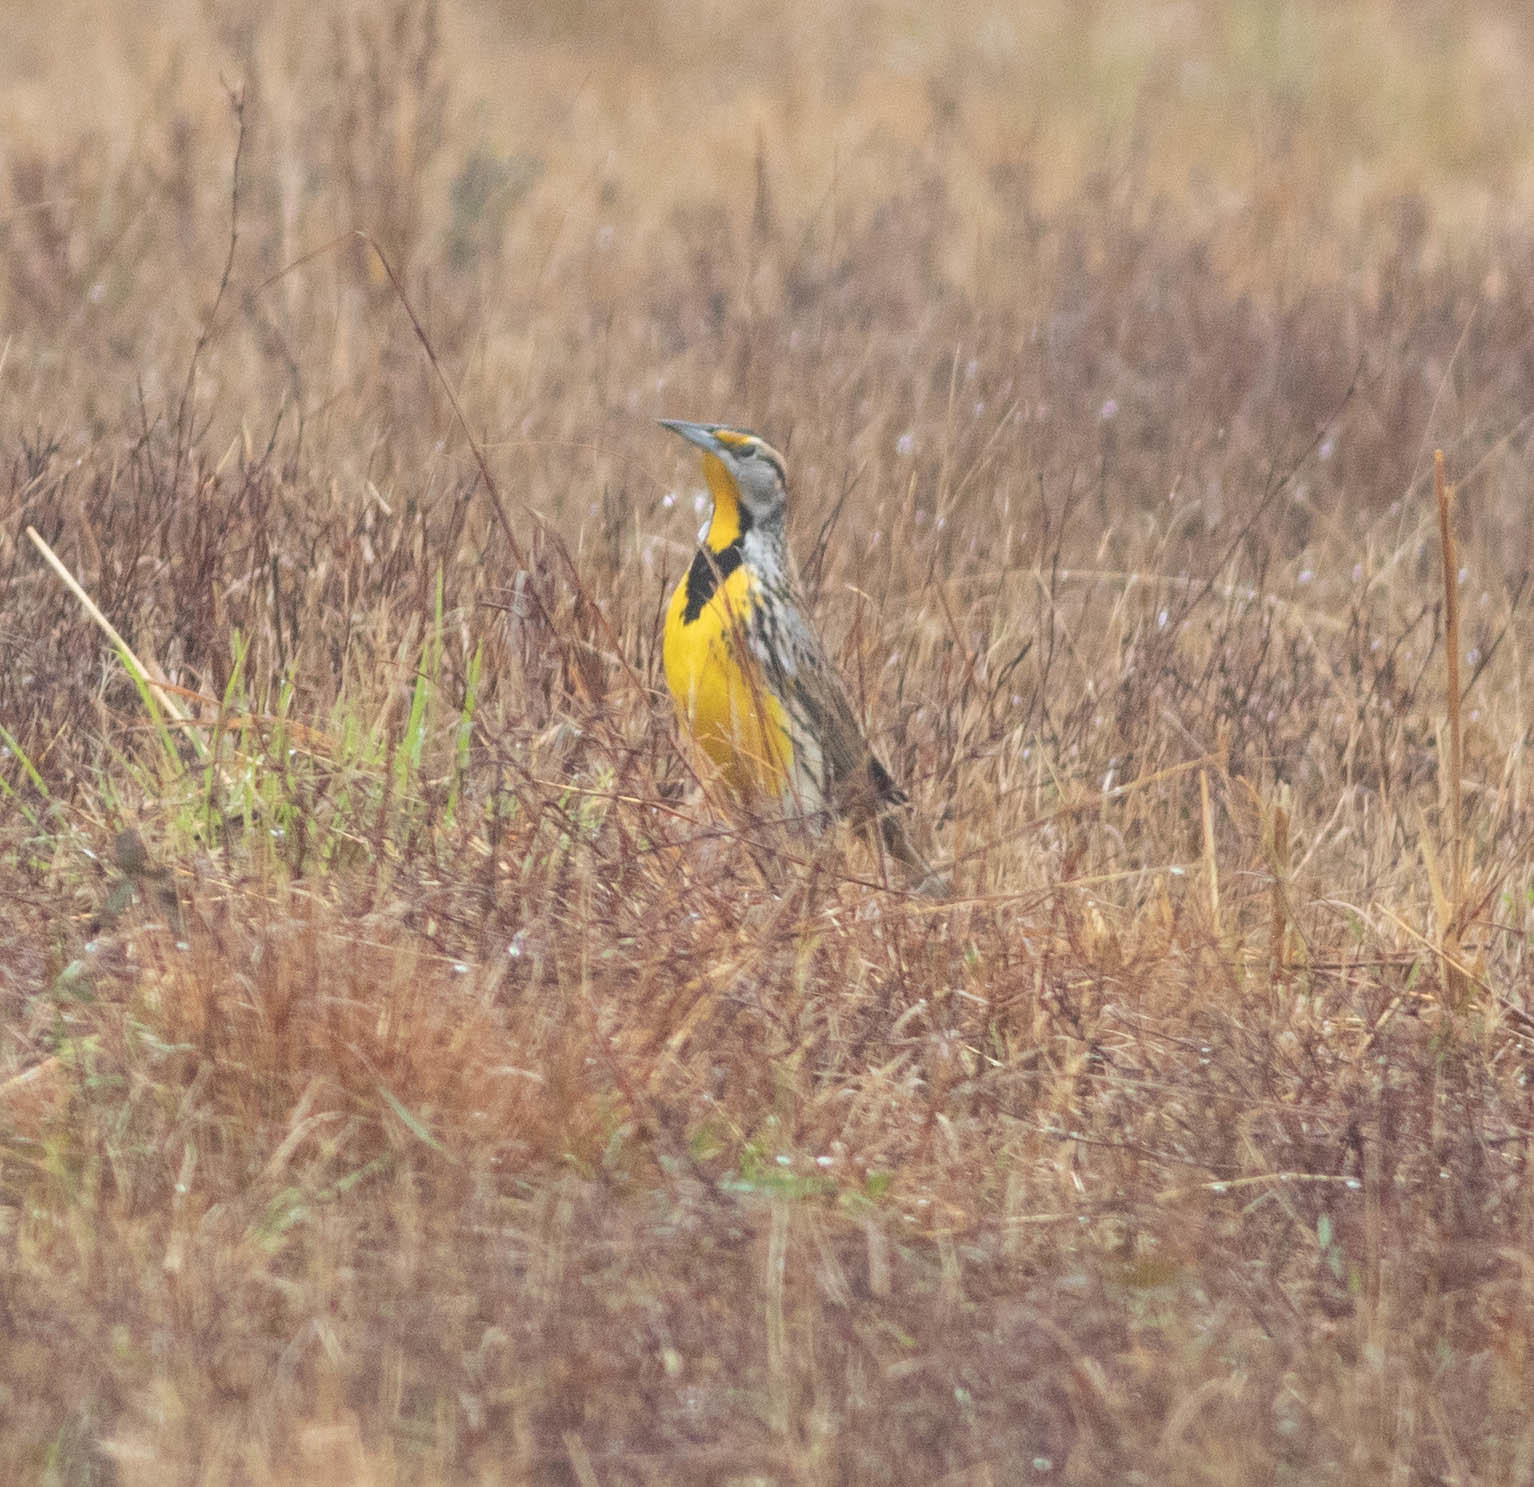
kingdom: Animalia
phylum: Chordata
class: Aves
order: Passeriformes
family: Icteridae
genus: Sturnella
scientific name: Sturnella magna
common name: Eastern meadowlark
